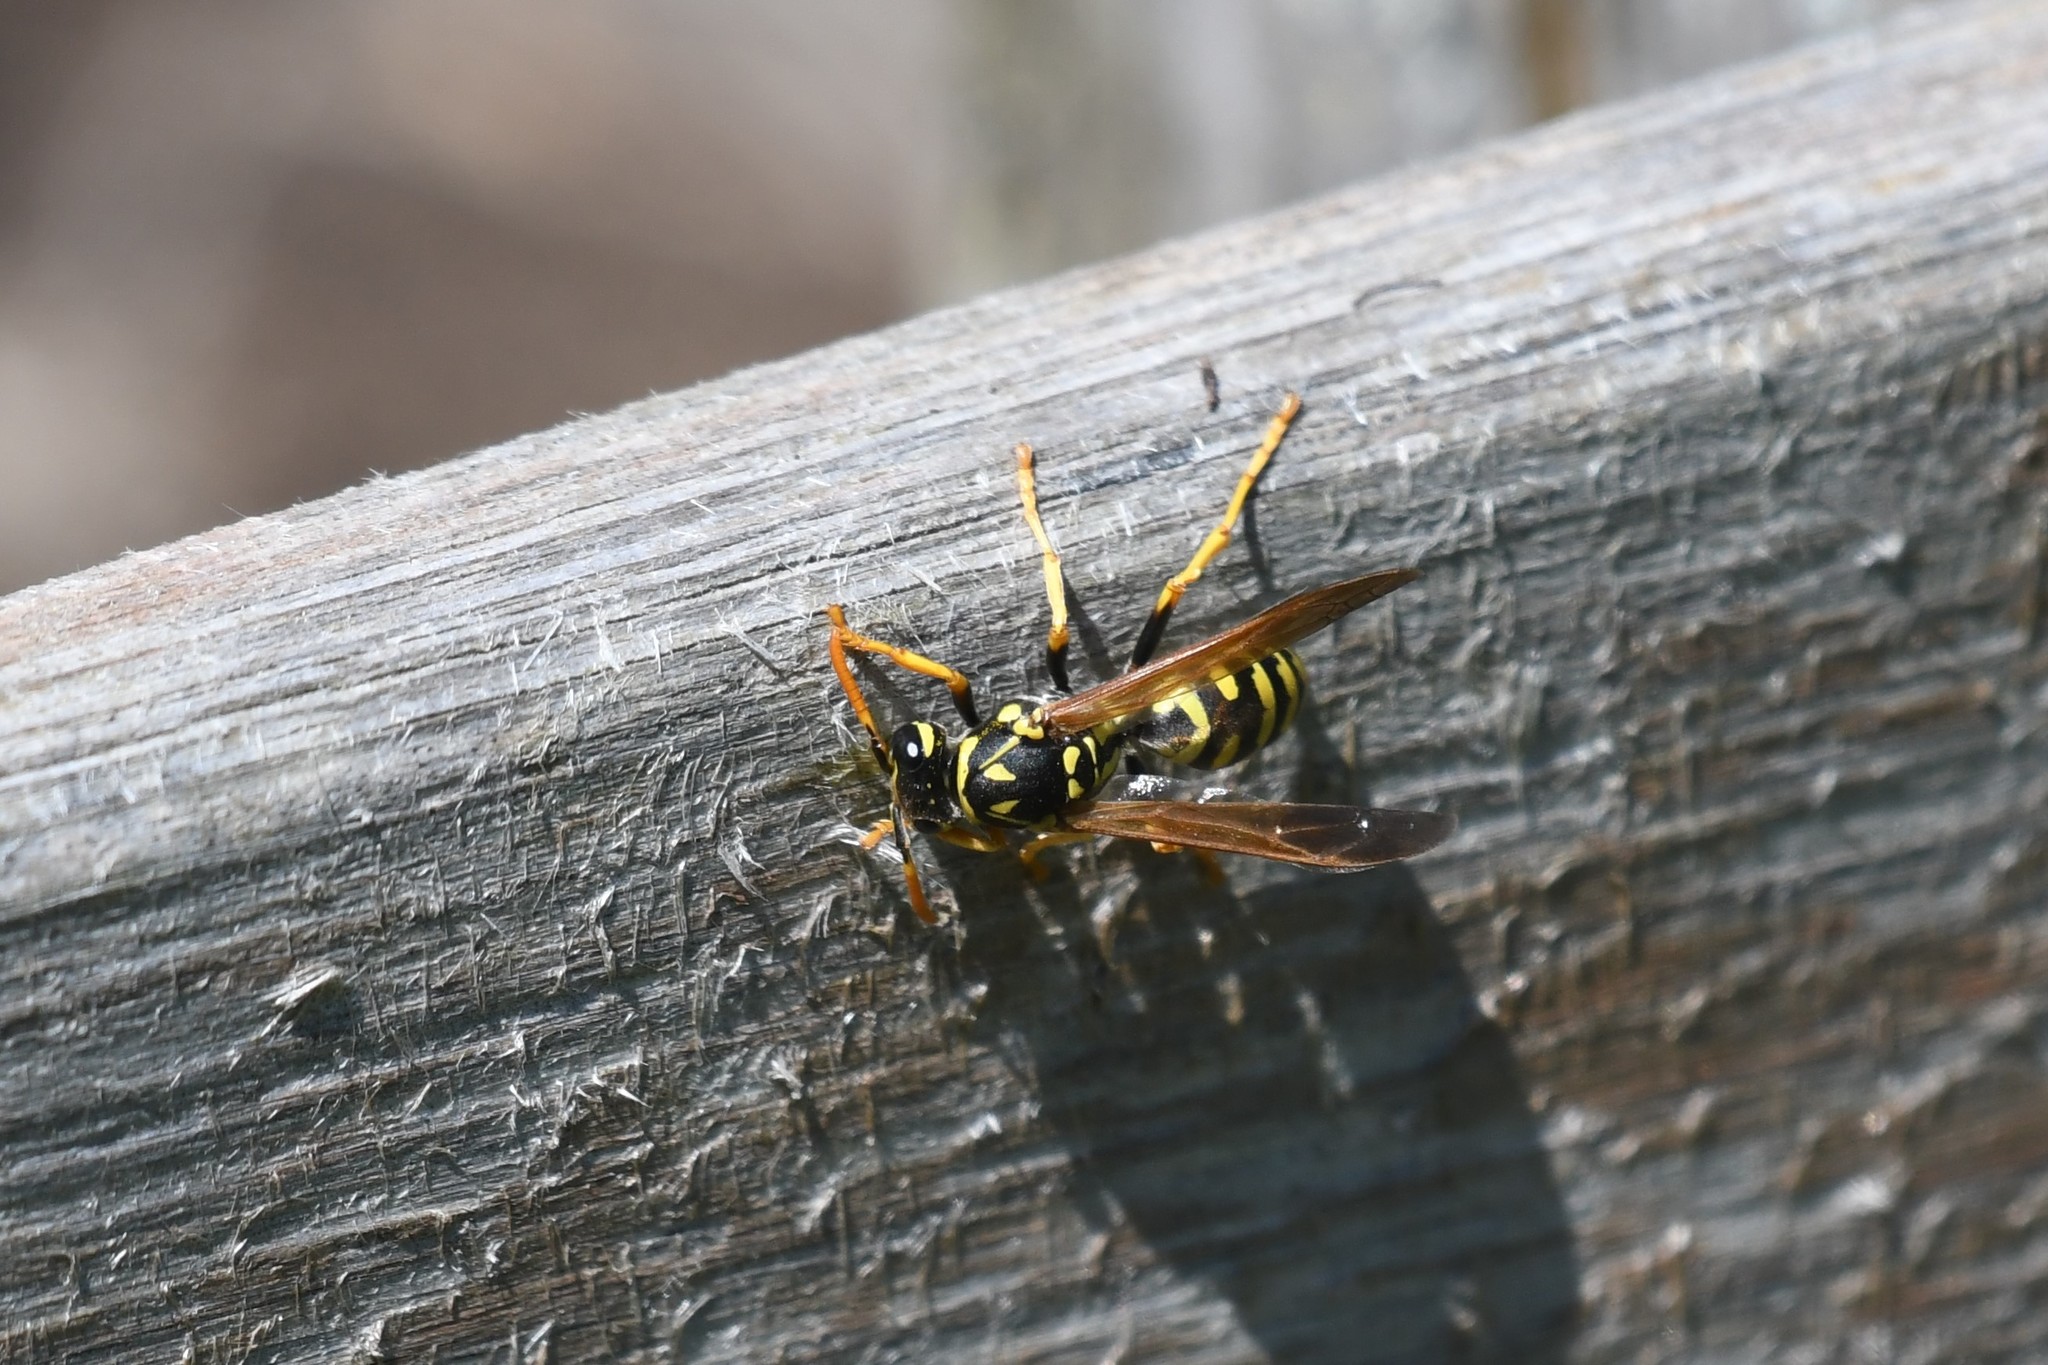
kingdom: Animalia
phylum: Arthropoda
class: Insecta
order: Hymenoptera
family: Eumenidae
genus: Polistes
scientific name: Polistes dominula
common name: Paper wasp
